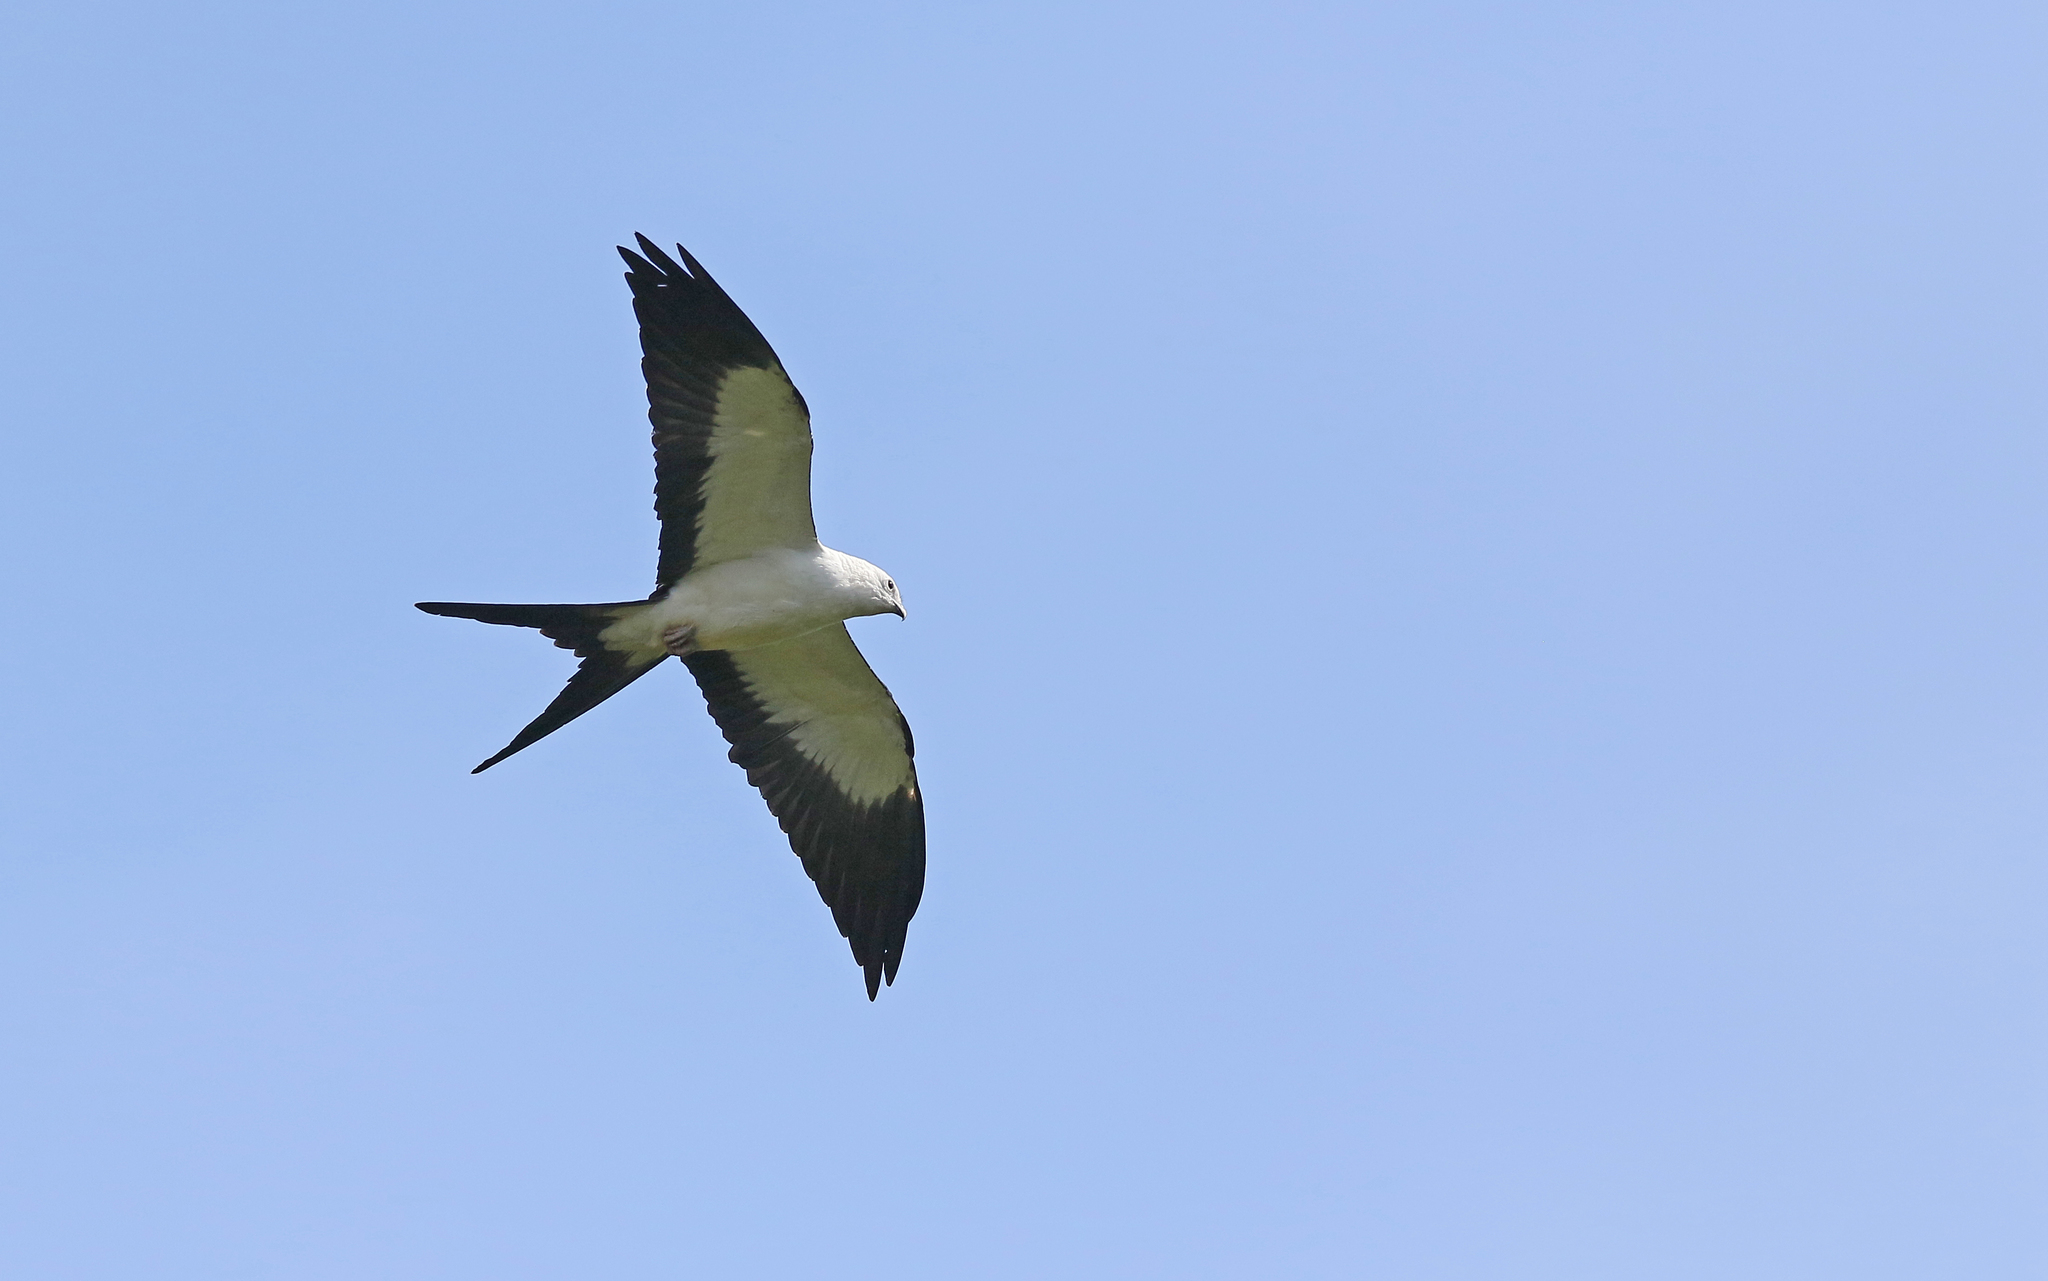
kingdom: Animalia
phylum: Chordata
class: Aves
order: Accipitriformes
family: Accipitridae
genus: Elanoides
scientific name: Elanoides forficatus
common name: Swallow-tailed kite
